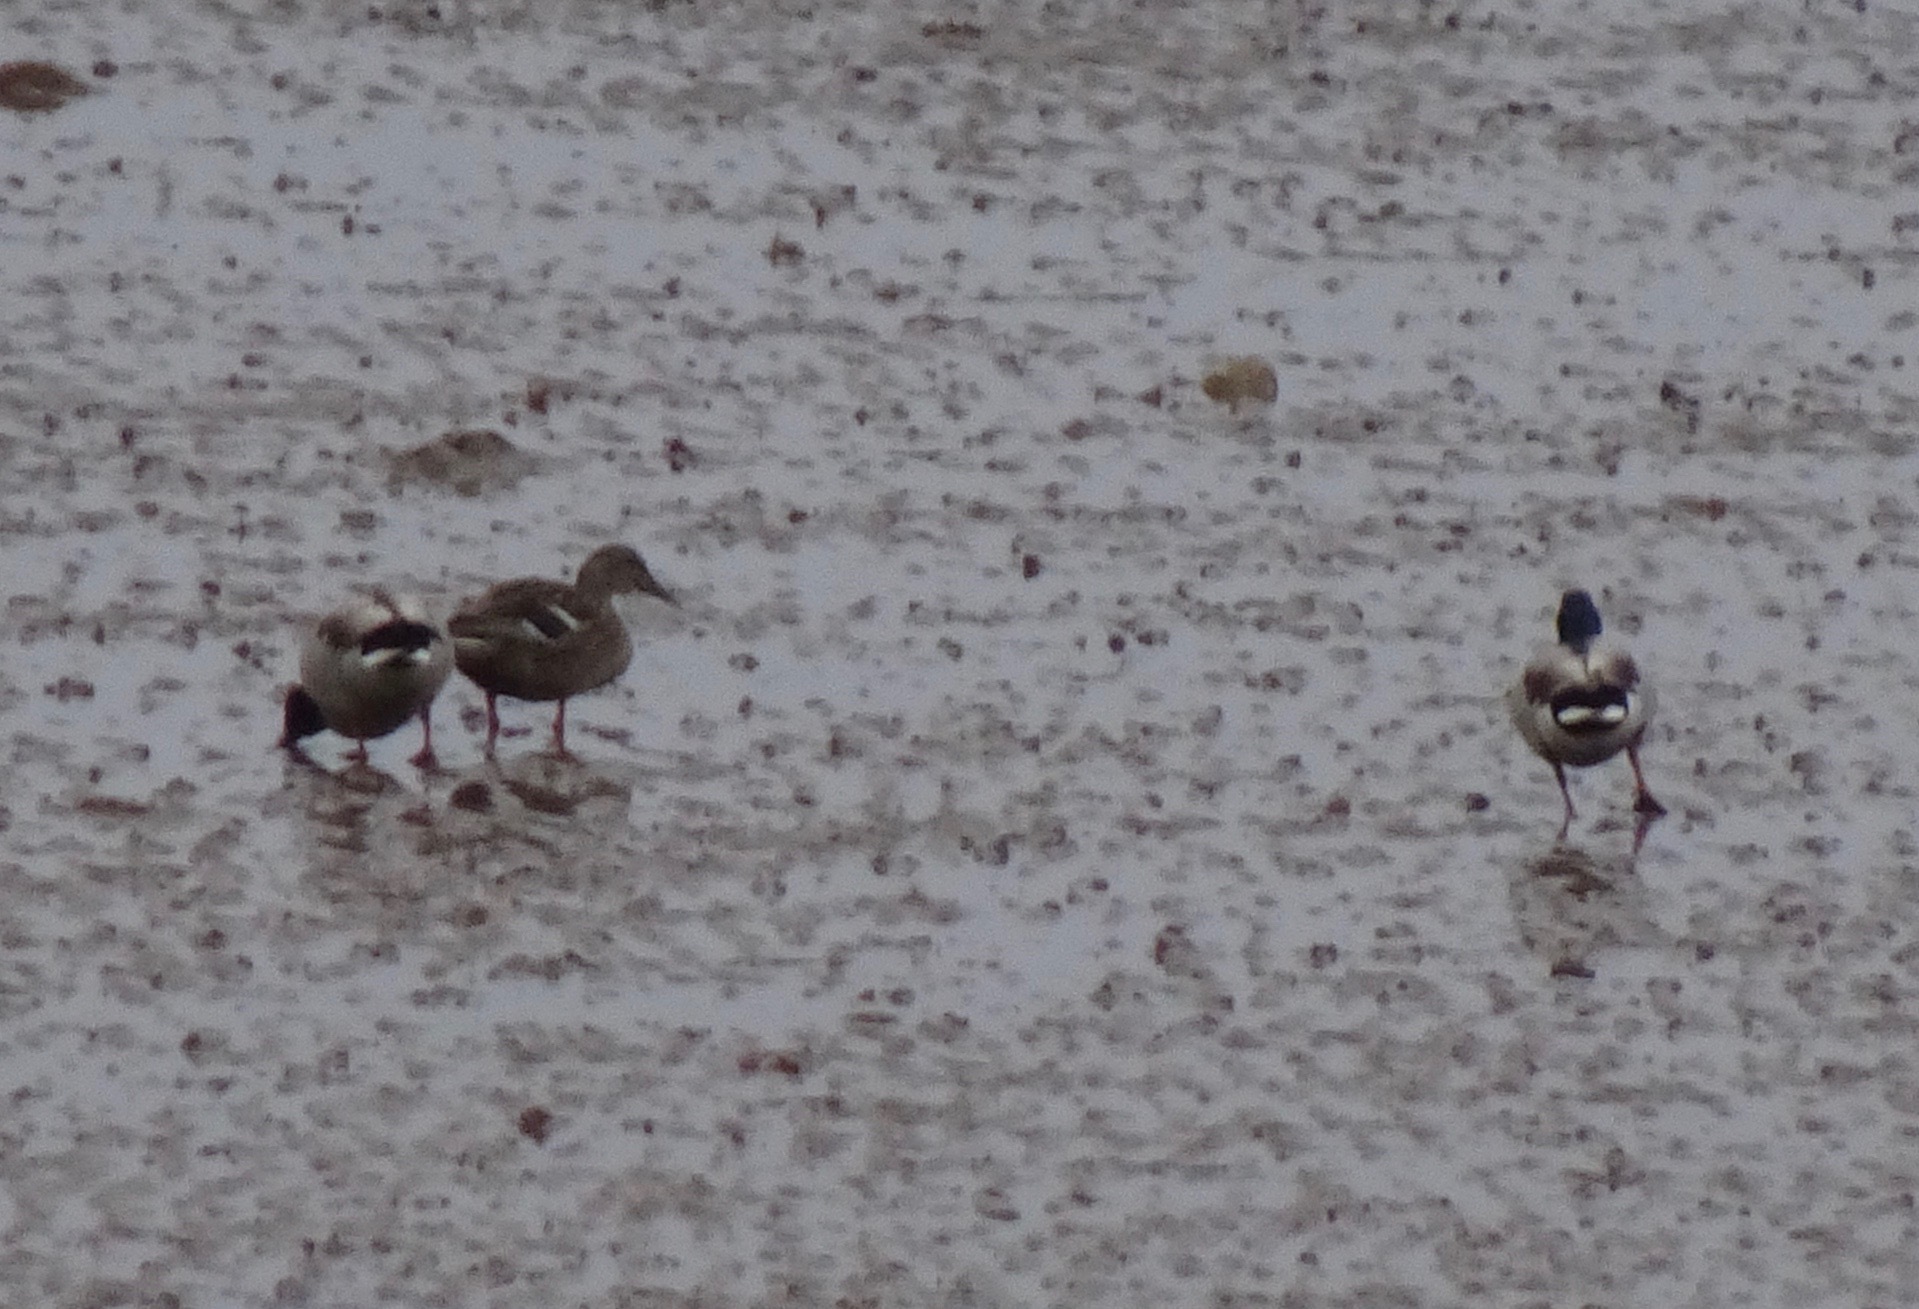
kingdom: Animalia
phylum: Chordata
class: Aves
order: Anseriformes
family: Anatidae
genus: Anas
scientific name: Anas platyrhynchos
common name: Mallard
